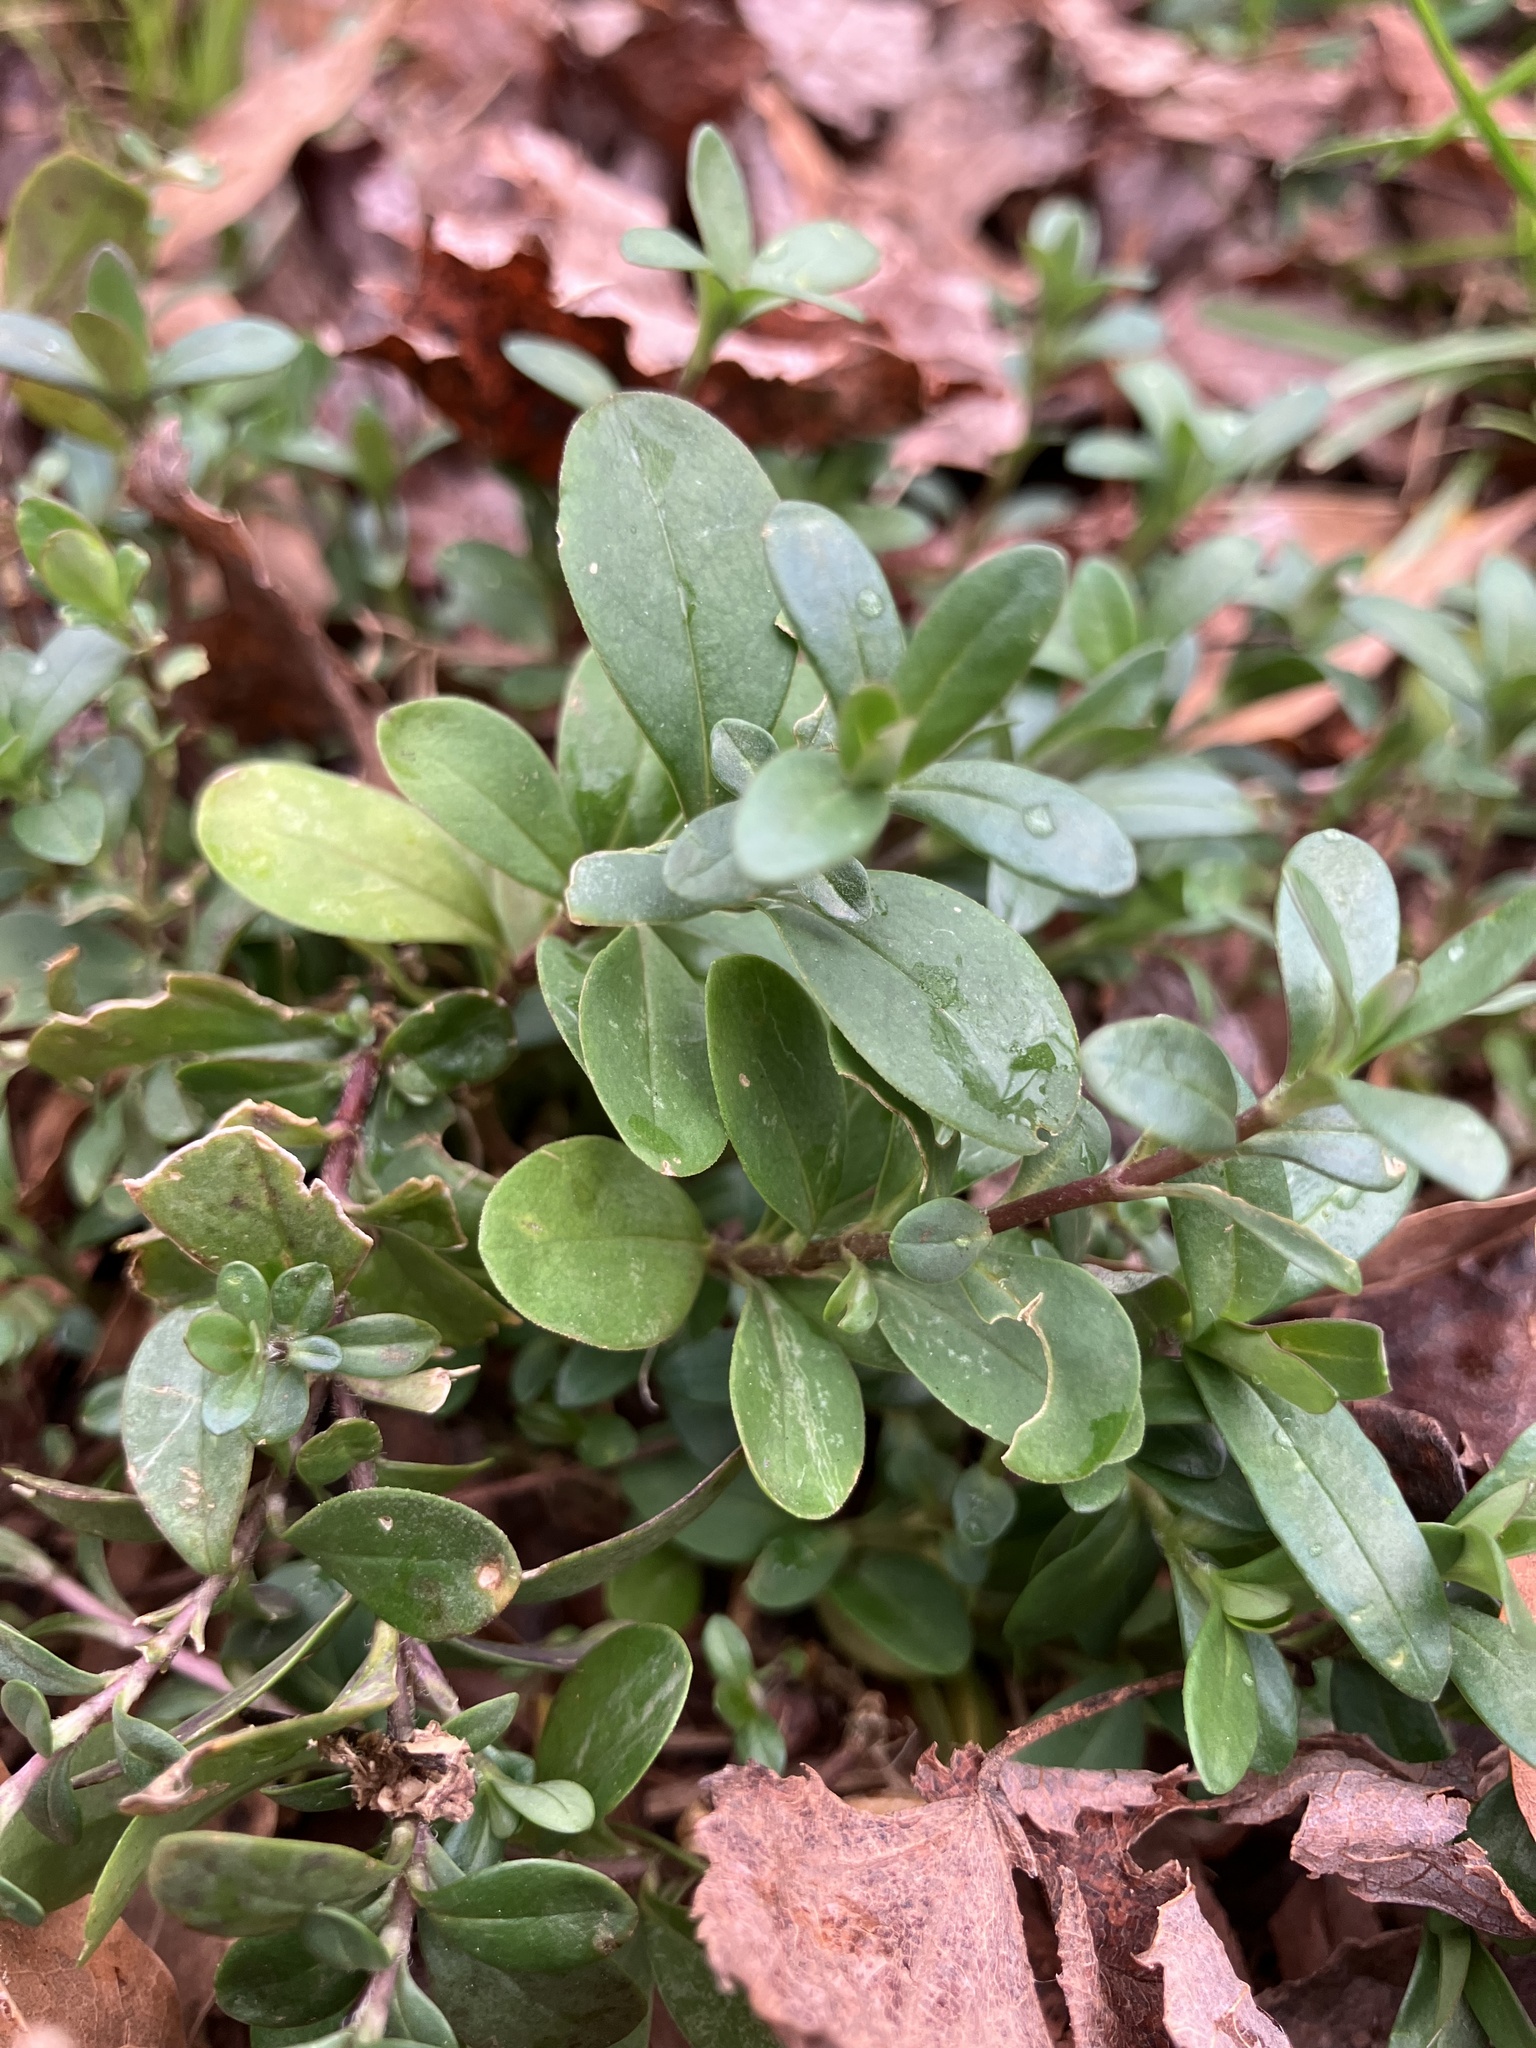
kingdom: Plantae
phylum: Tracheophyta
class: Magnoliopsida
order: Malpighiales
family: Hypericaceae
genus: Hypericum
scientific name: Hypericum hypericoides
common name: St. andrew's cross
